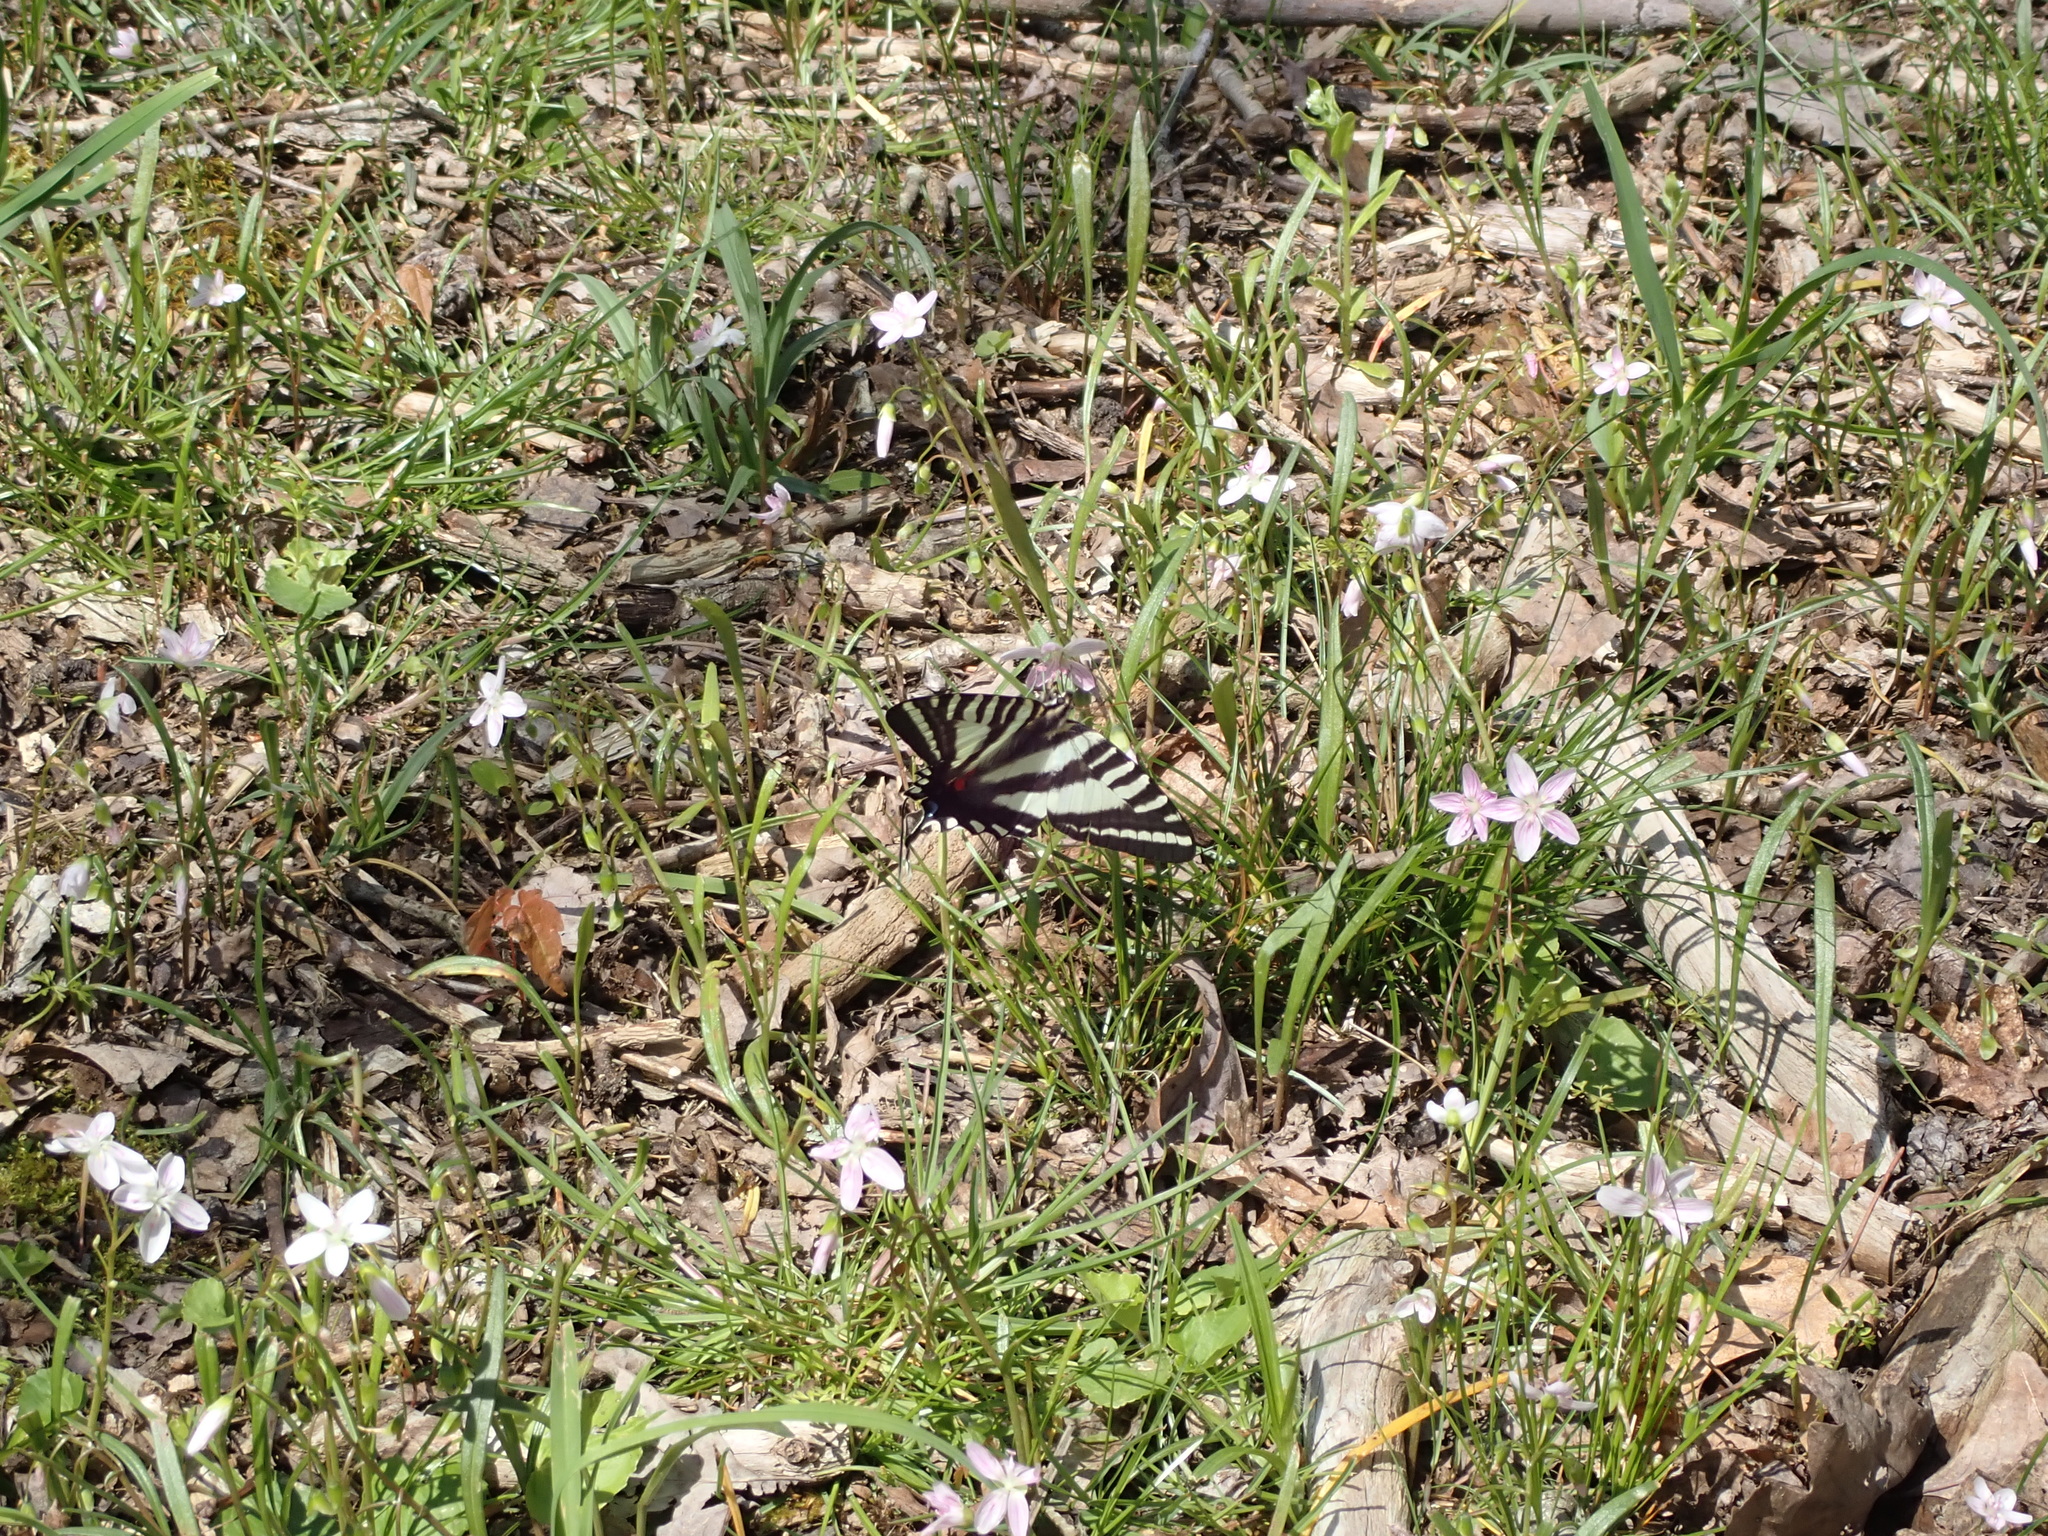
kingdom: Animalia
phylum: Arthropoda
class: Insecta
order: Lepidoptera
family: Papilionidae
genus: Protographium
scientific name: Protographium marcellus
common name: Zebra swallowtail
